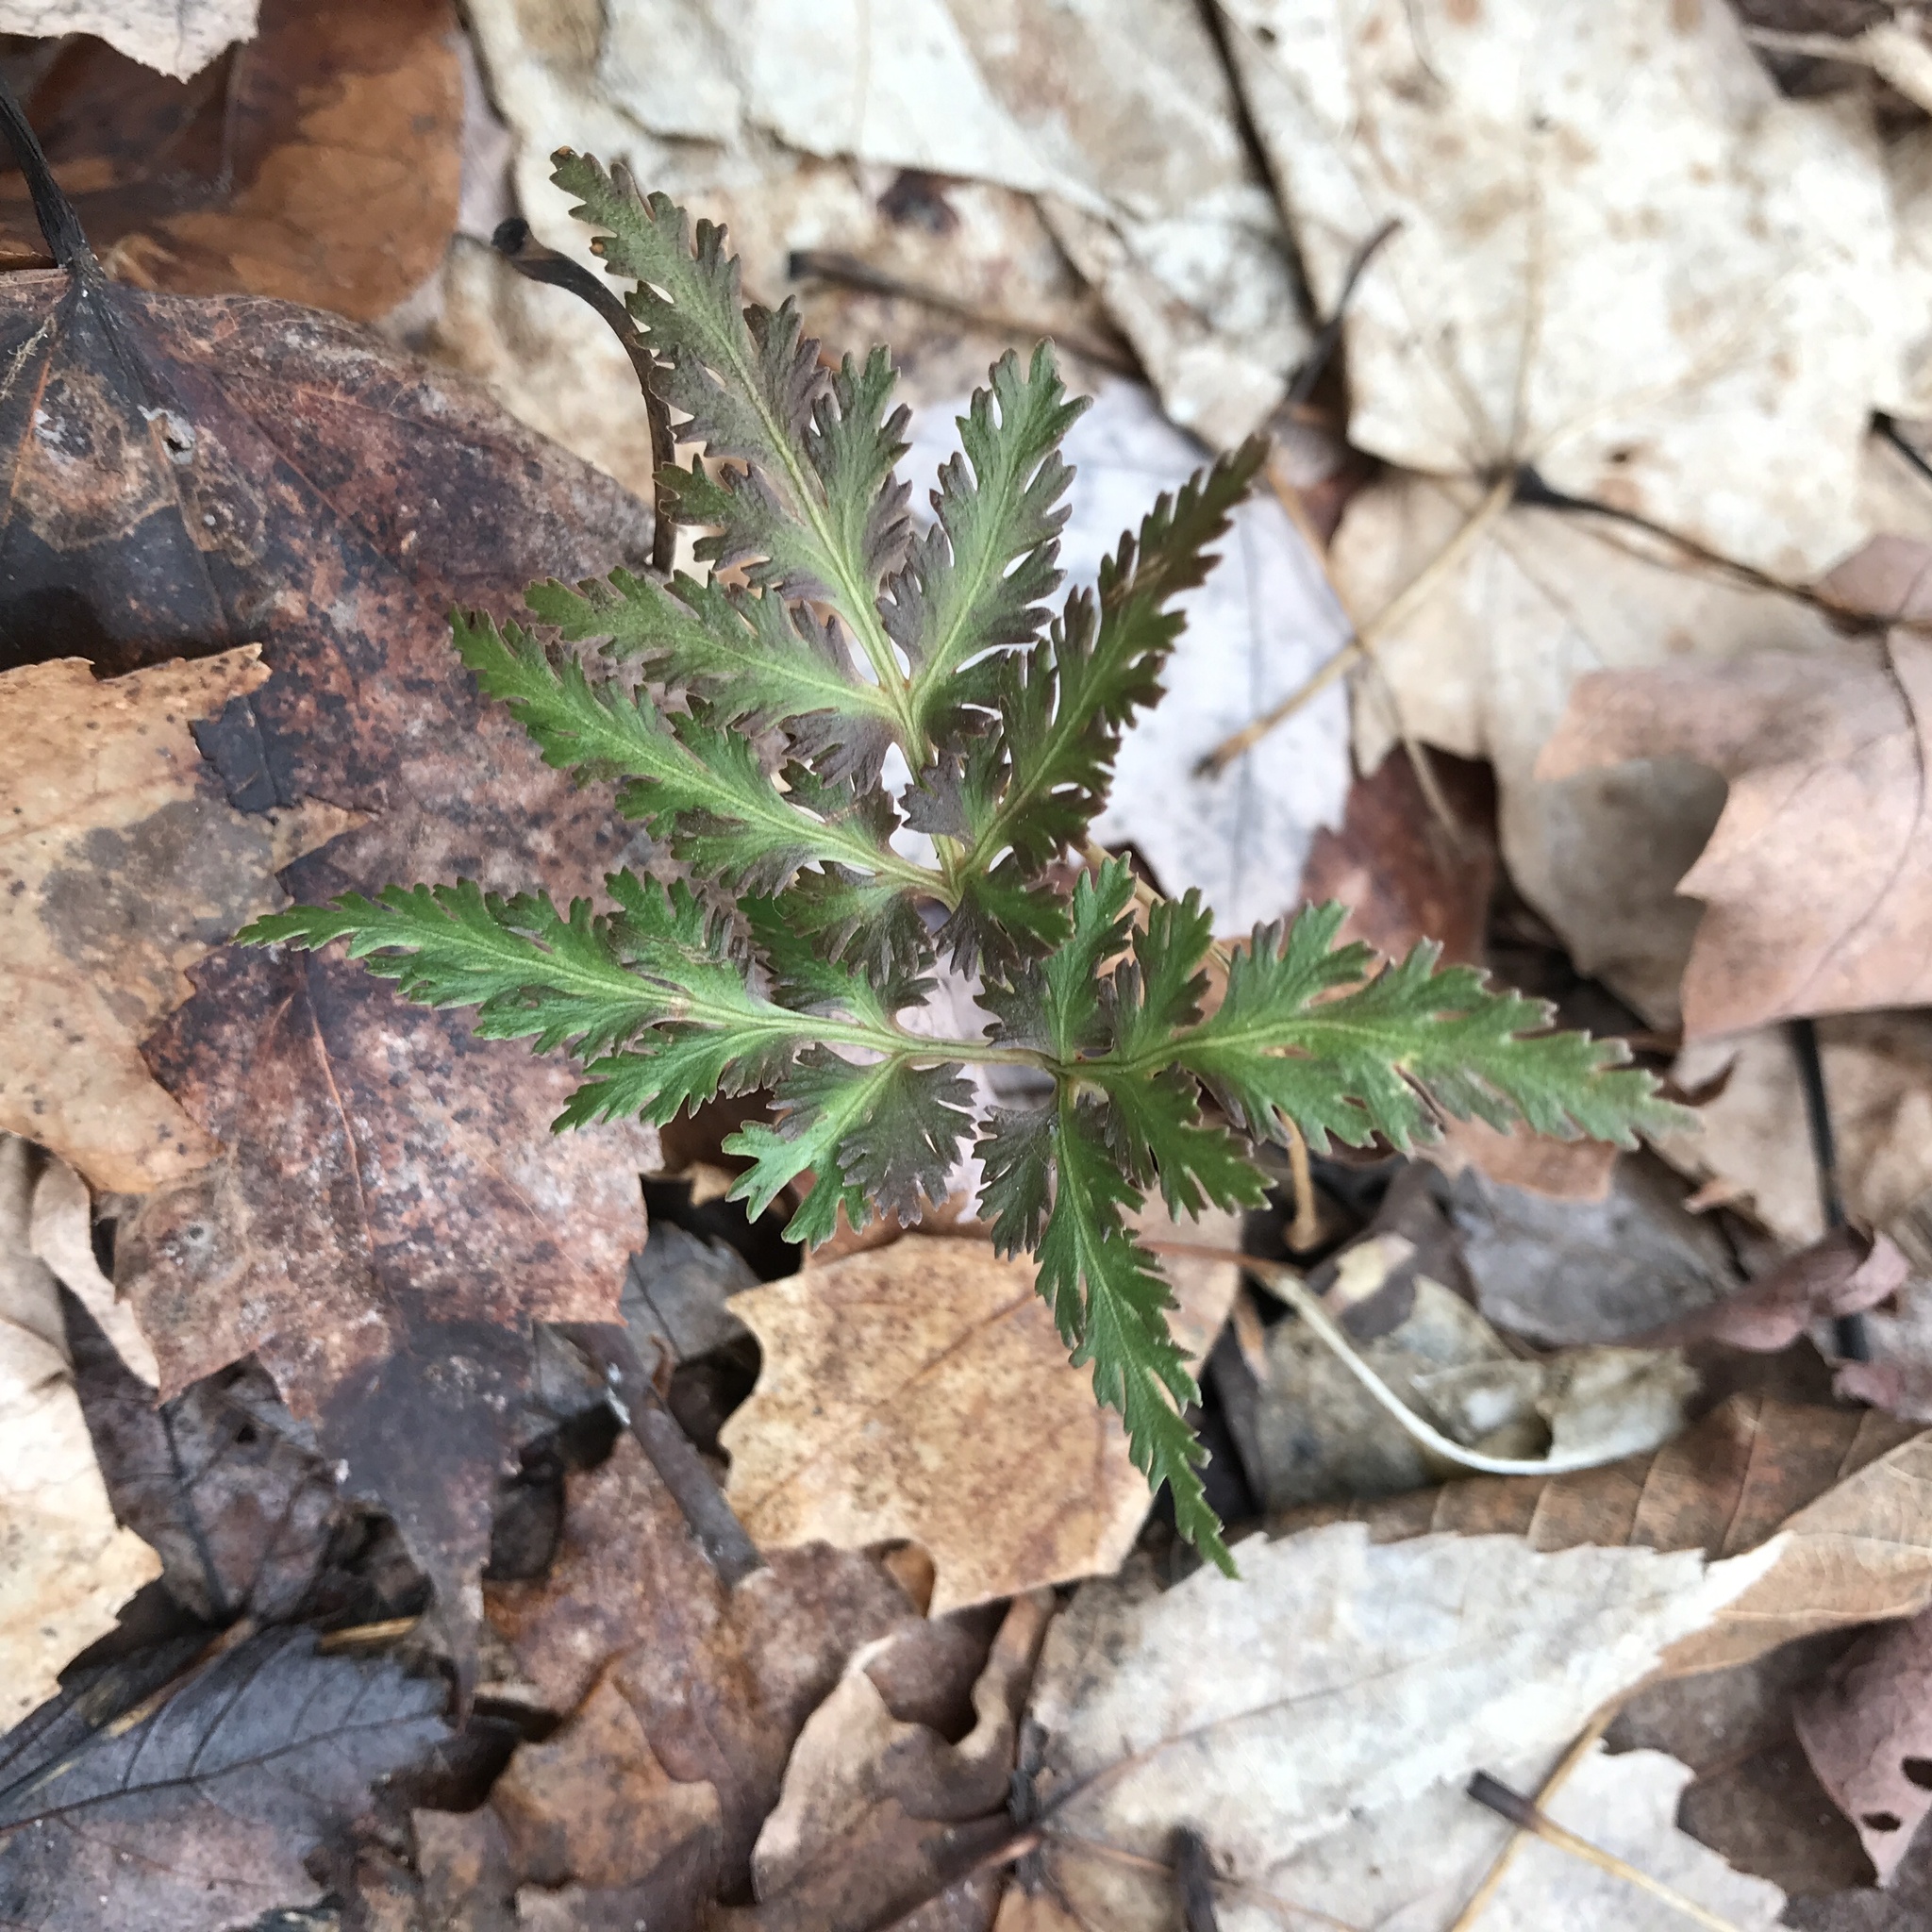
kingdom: Plantae
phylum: Tracheophyta
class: Polypodiopsida
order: Ophioglossales
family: Ophioglossaceae
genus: Sceptridium
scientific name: Sceptridium dissectum
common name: Cut-leaved grapefern
